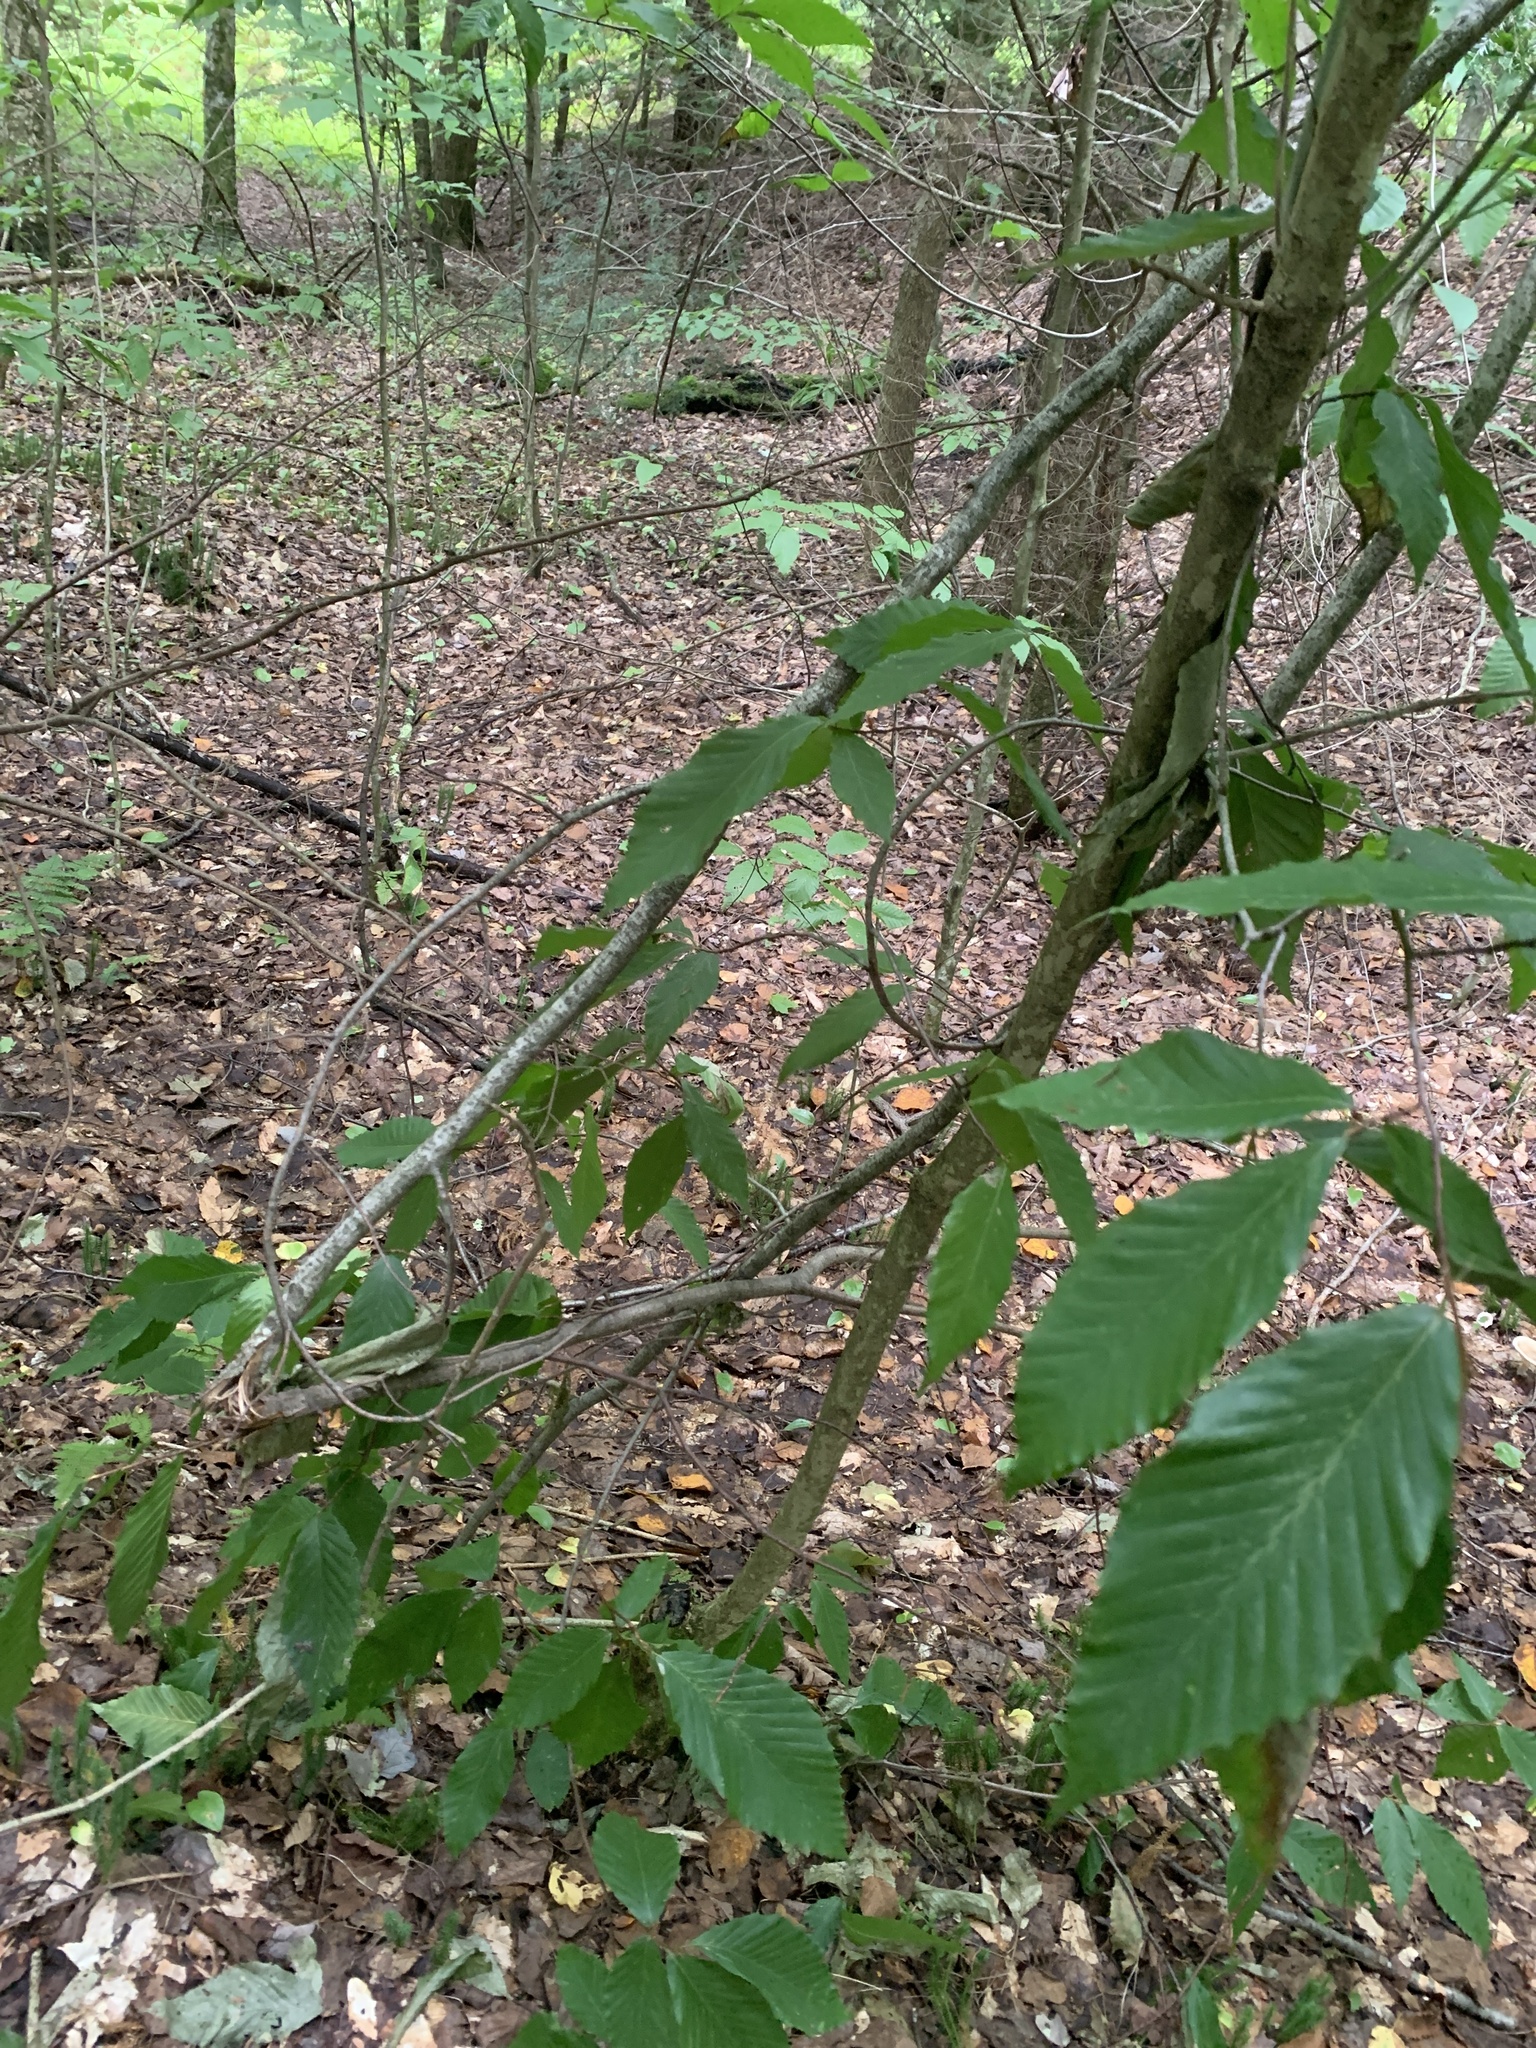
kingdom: Plantae
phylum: Tracheophyta
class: Magnoliopsida
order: Fagales
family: Fagaceae
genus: Fagus
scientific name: Fagus grandifolia
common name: American beech
